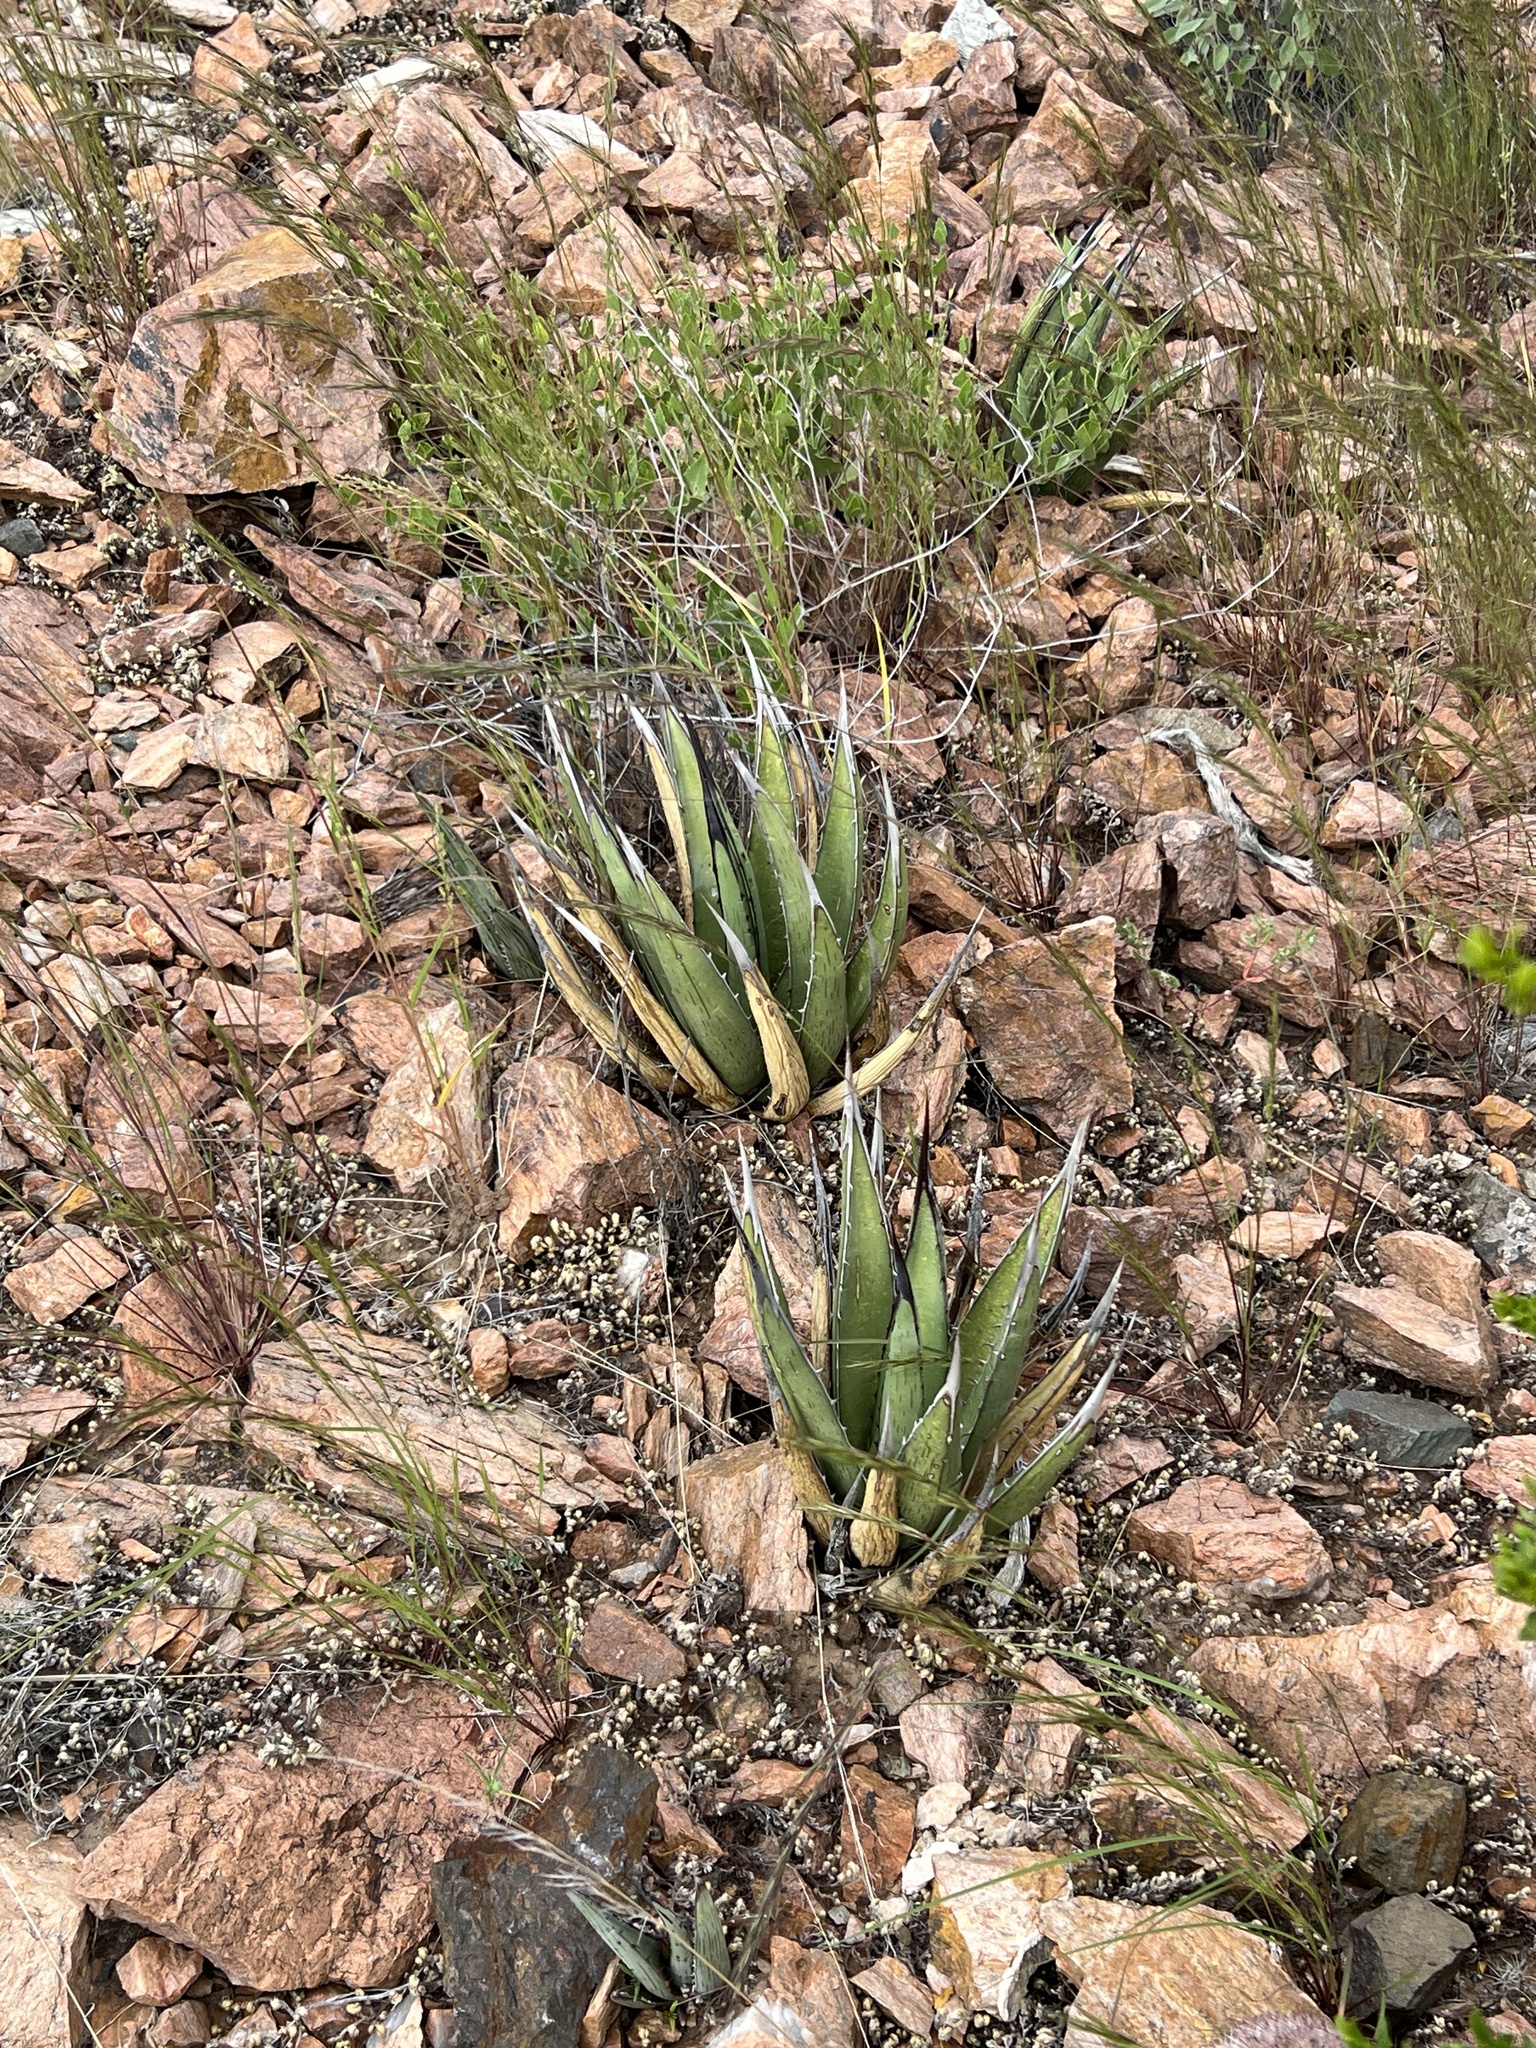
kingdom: Plantae
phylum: Tracheophyta
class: Liliopsida
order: Asparagales
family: Asparagaceae
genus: Agave
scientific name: Agave lechuguilla
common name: Lecheguilla agave
